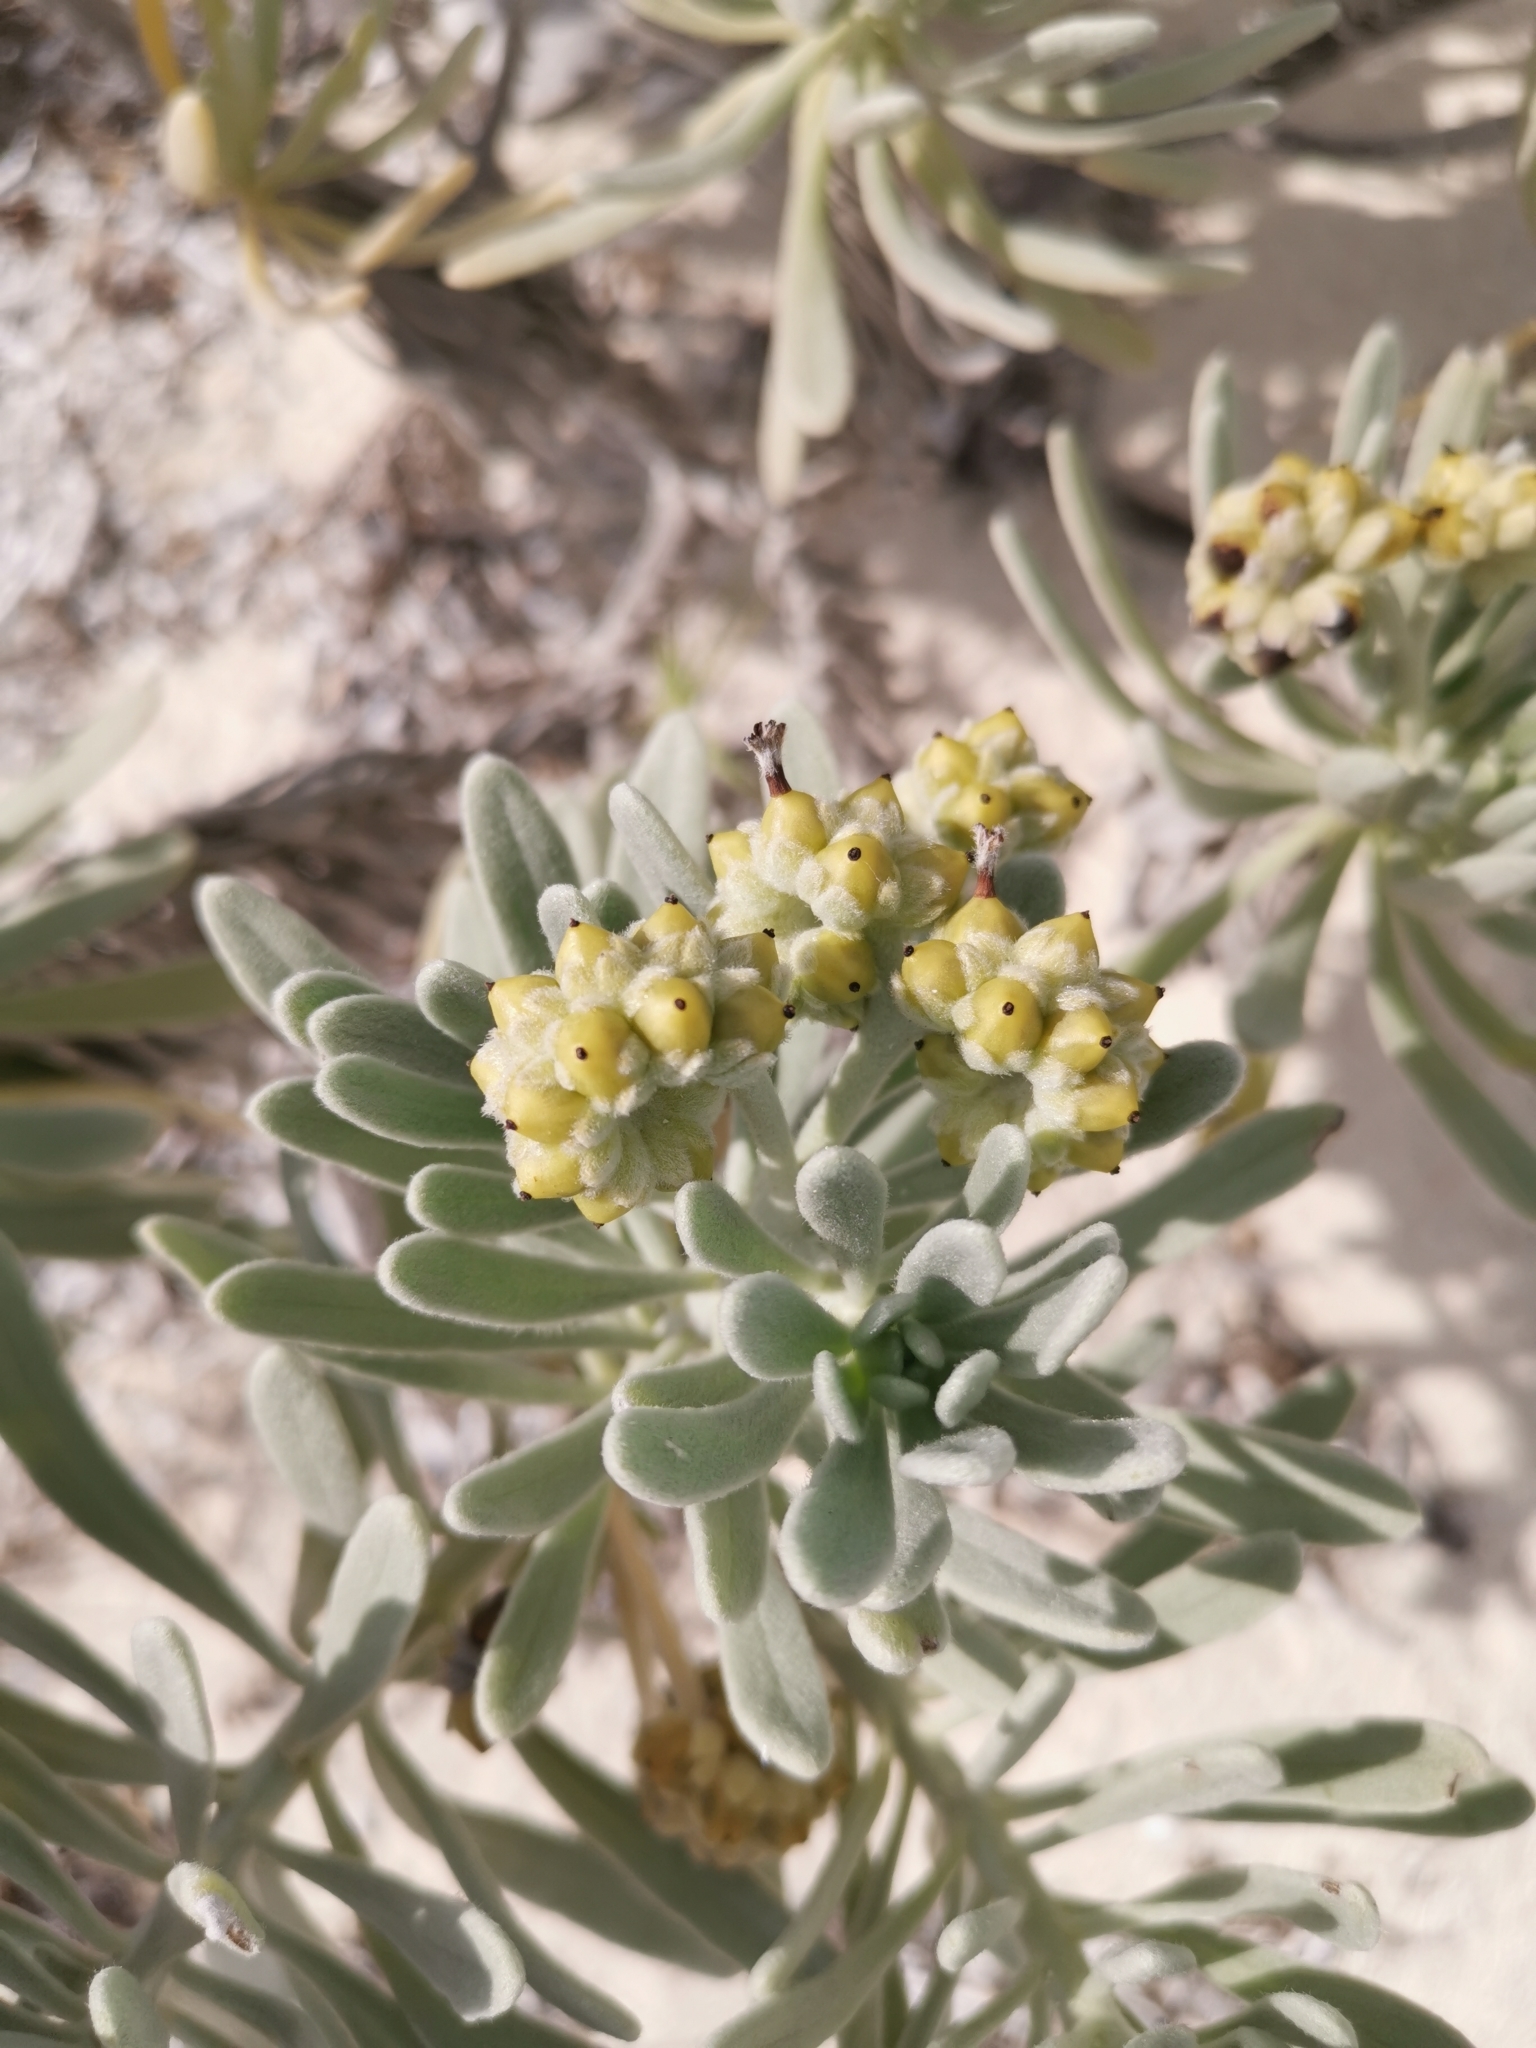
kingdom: Plantae
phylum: Tracheophyta
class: Magnoliopsida
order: Boraginales
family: Heliotropiaceae
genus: Tournefortia
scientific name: Tournefortia gnaphalodes
